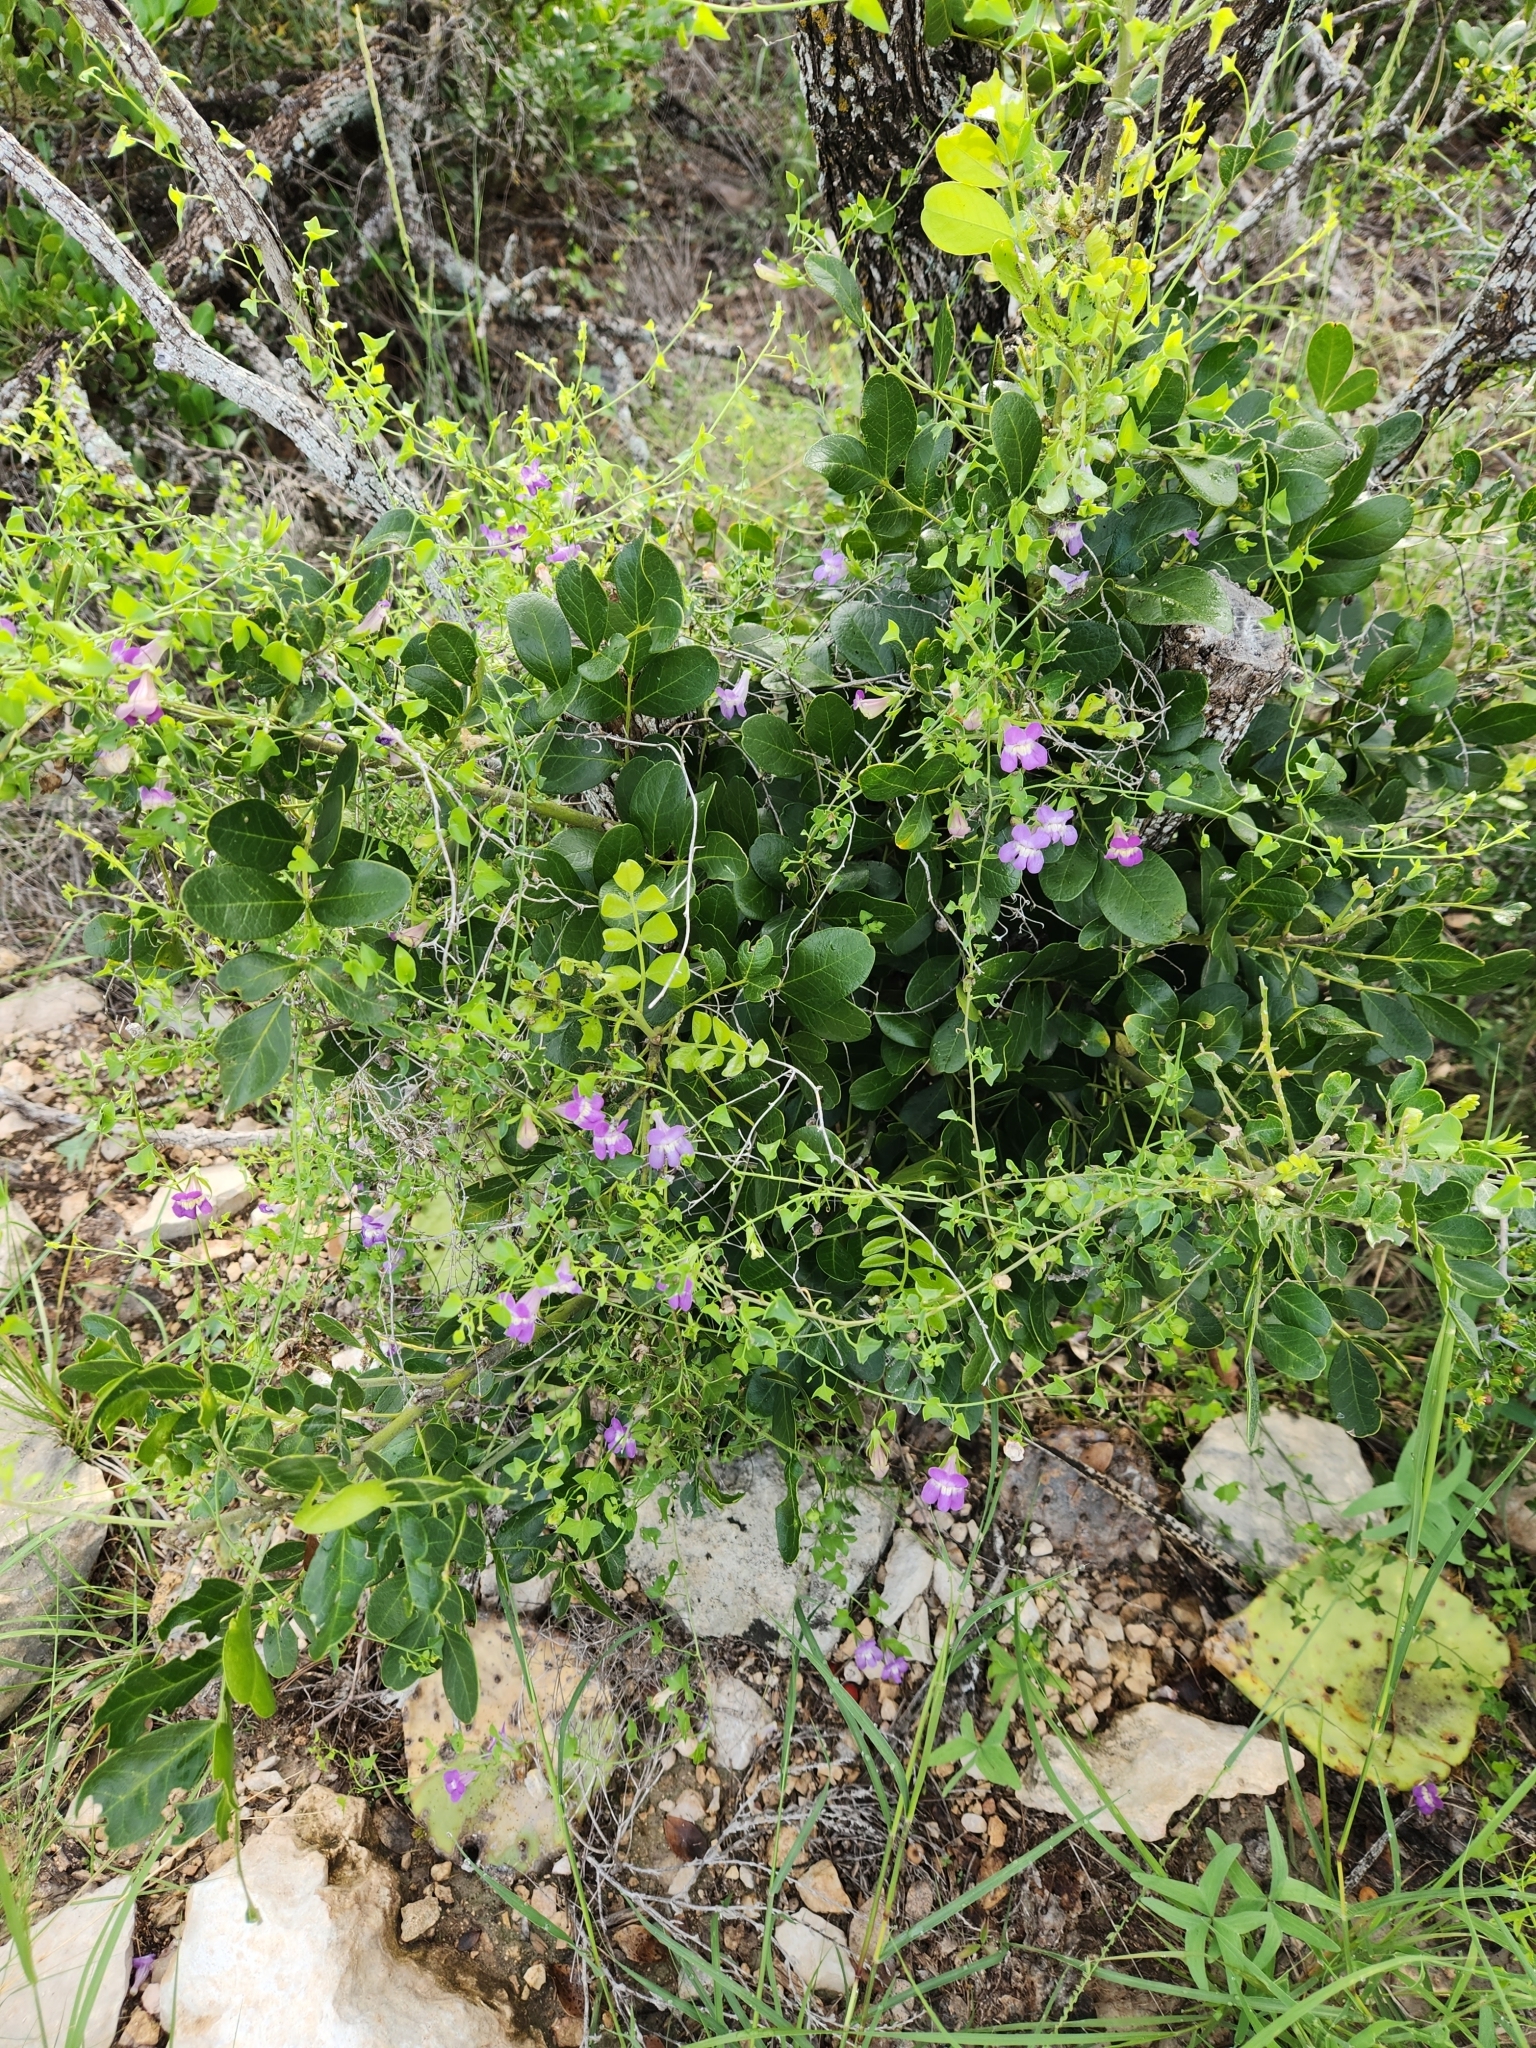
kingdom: Plantae
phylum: Tracheophyta
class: Magnoliopsida
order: Lamiales
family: Plantaginaceae
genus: Maurandella
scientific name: Maurandella antirrhiniflora
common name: Violet twining-snapdragon
